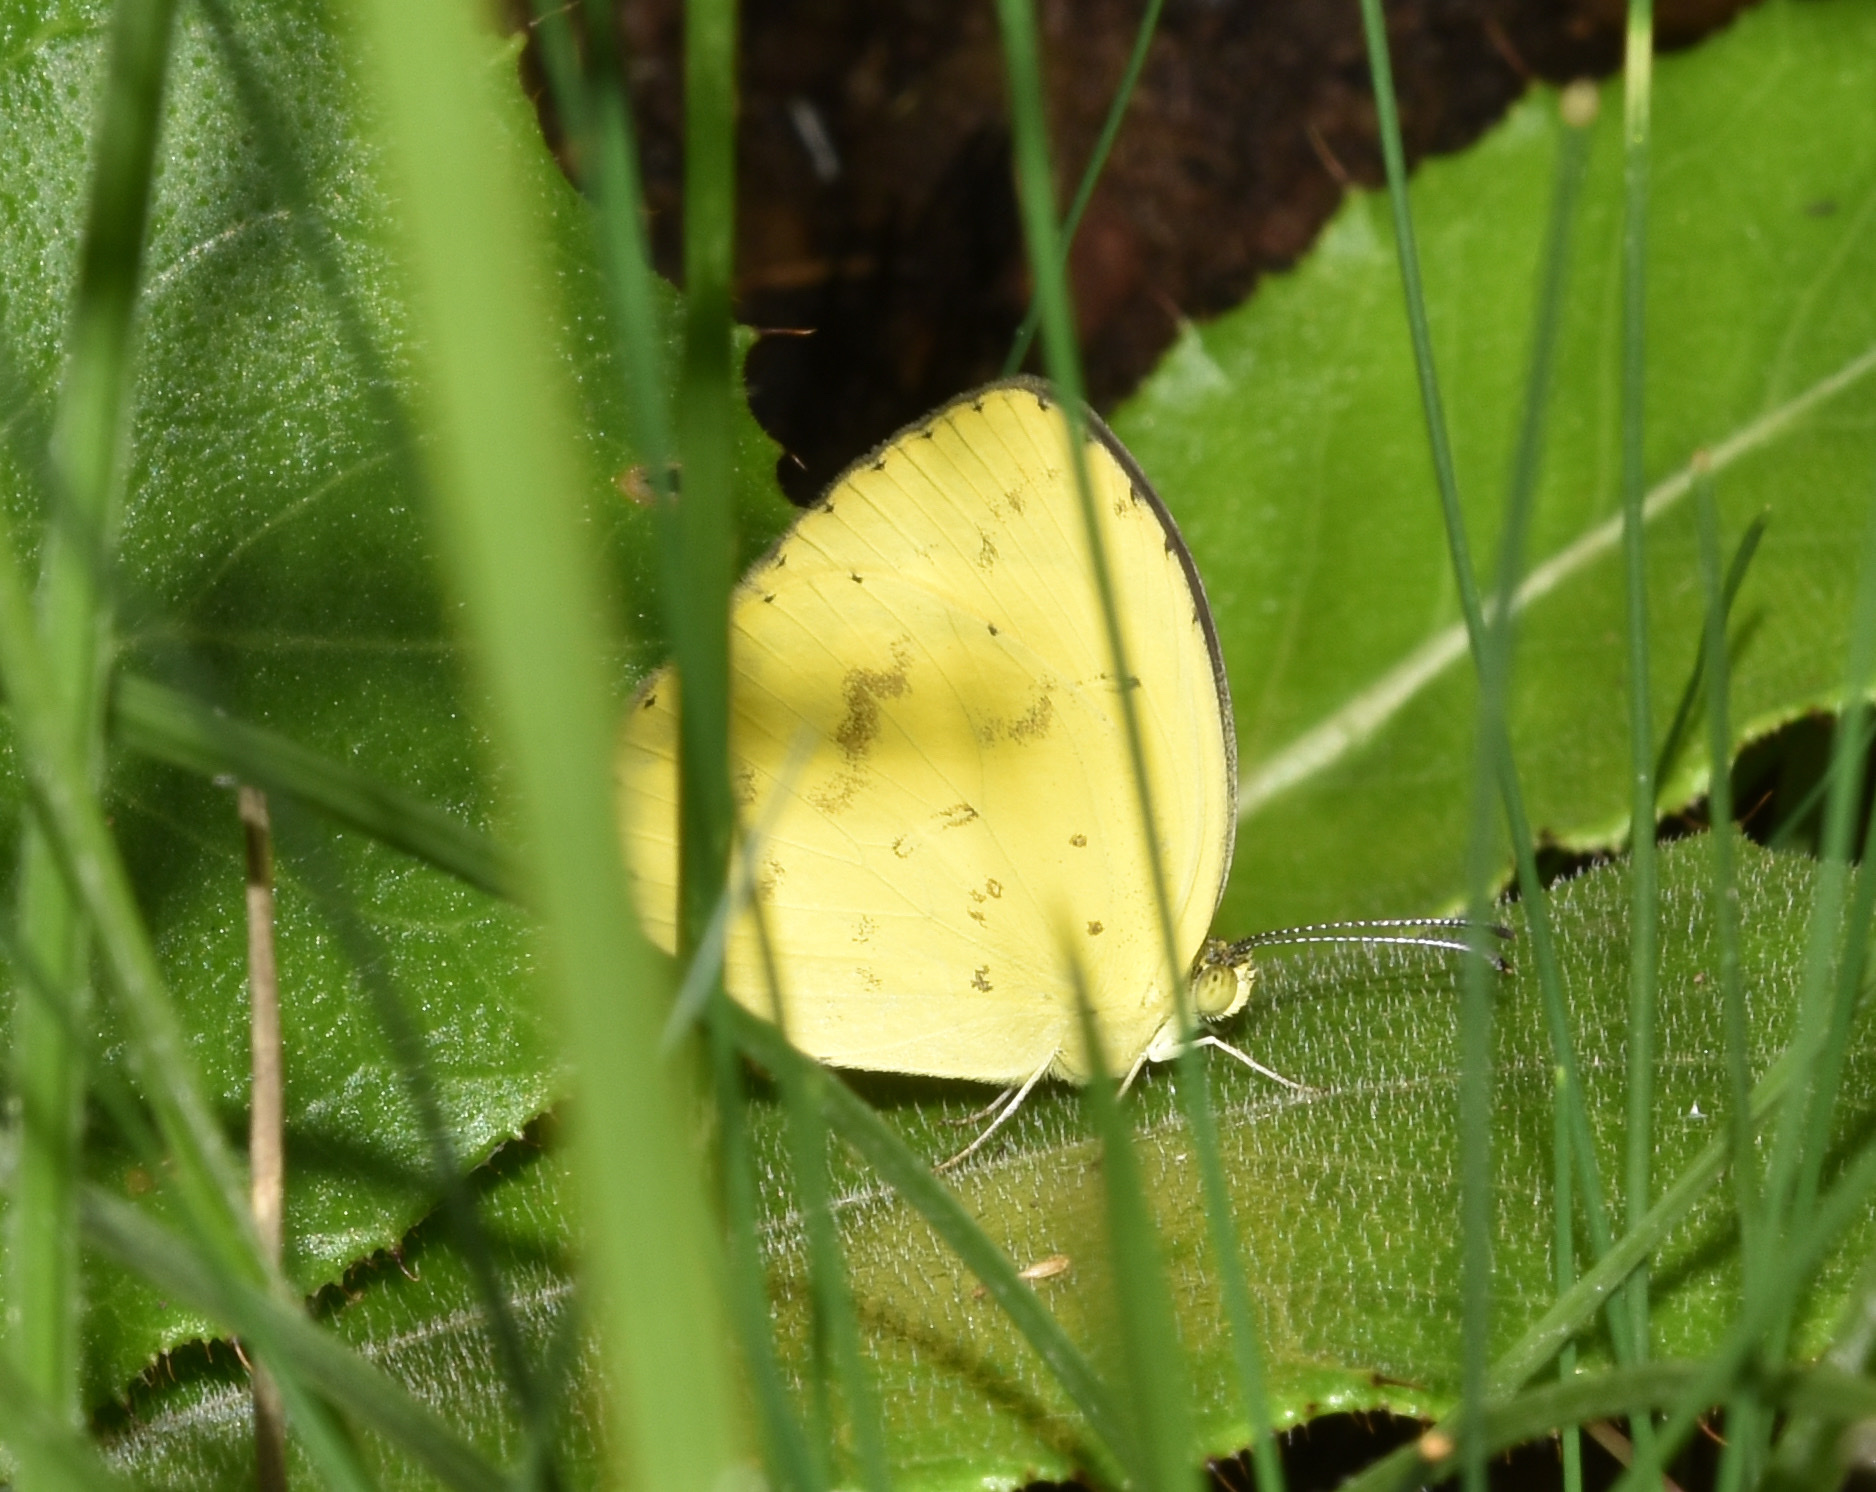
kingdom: Animalia
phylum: Arthropoda
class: Insecta
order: Lepidoptera
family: Pieridae
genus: Eurema
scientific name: Eurema regularis
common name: Regular grass yellow
